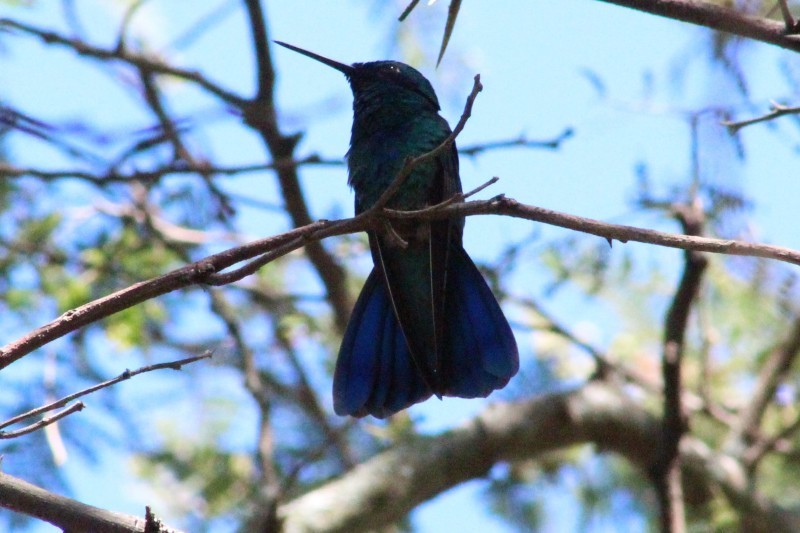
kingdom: Animalia
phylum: Chordata
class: Aves
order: Apodiformes
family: Trochilidae
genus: Colibri
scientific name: Colibri coruscans
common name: Sparkling violetear
